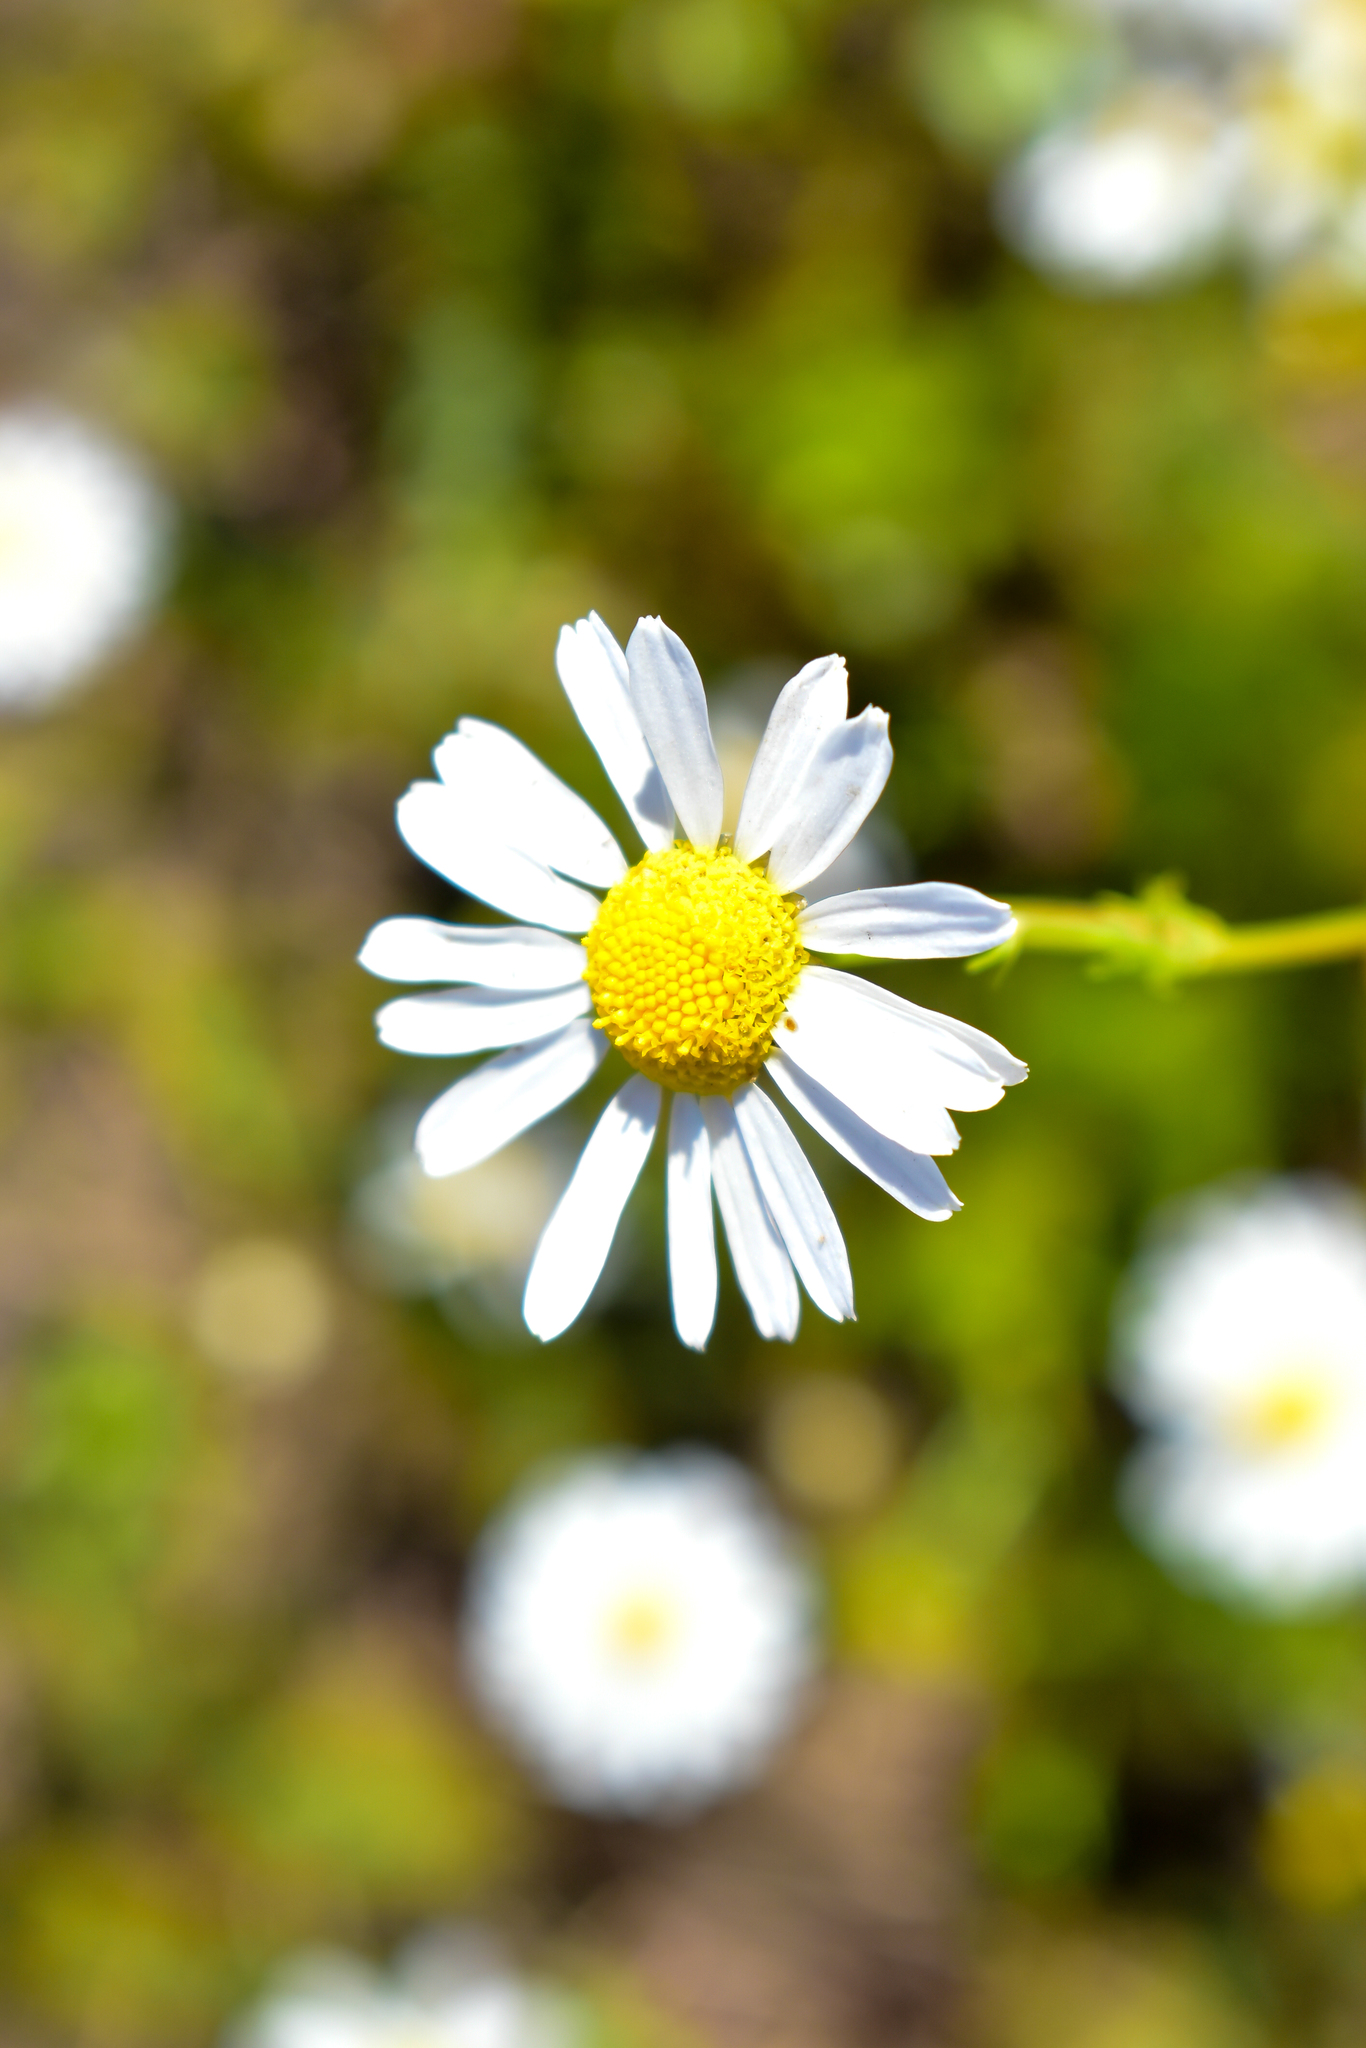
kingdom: Plantae
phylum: Tracheophyta
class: Magnoliopsida
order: Asterales
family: Asteraceae
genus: Tripleurospermum
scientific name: Tripleurospermum inodorum
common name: Scentless mayweed
